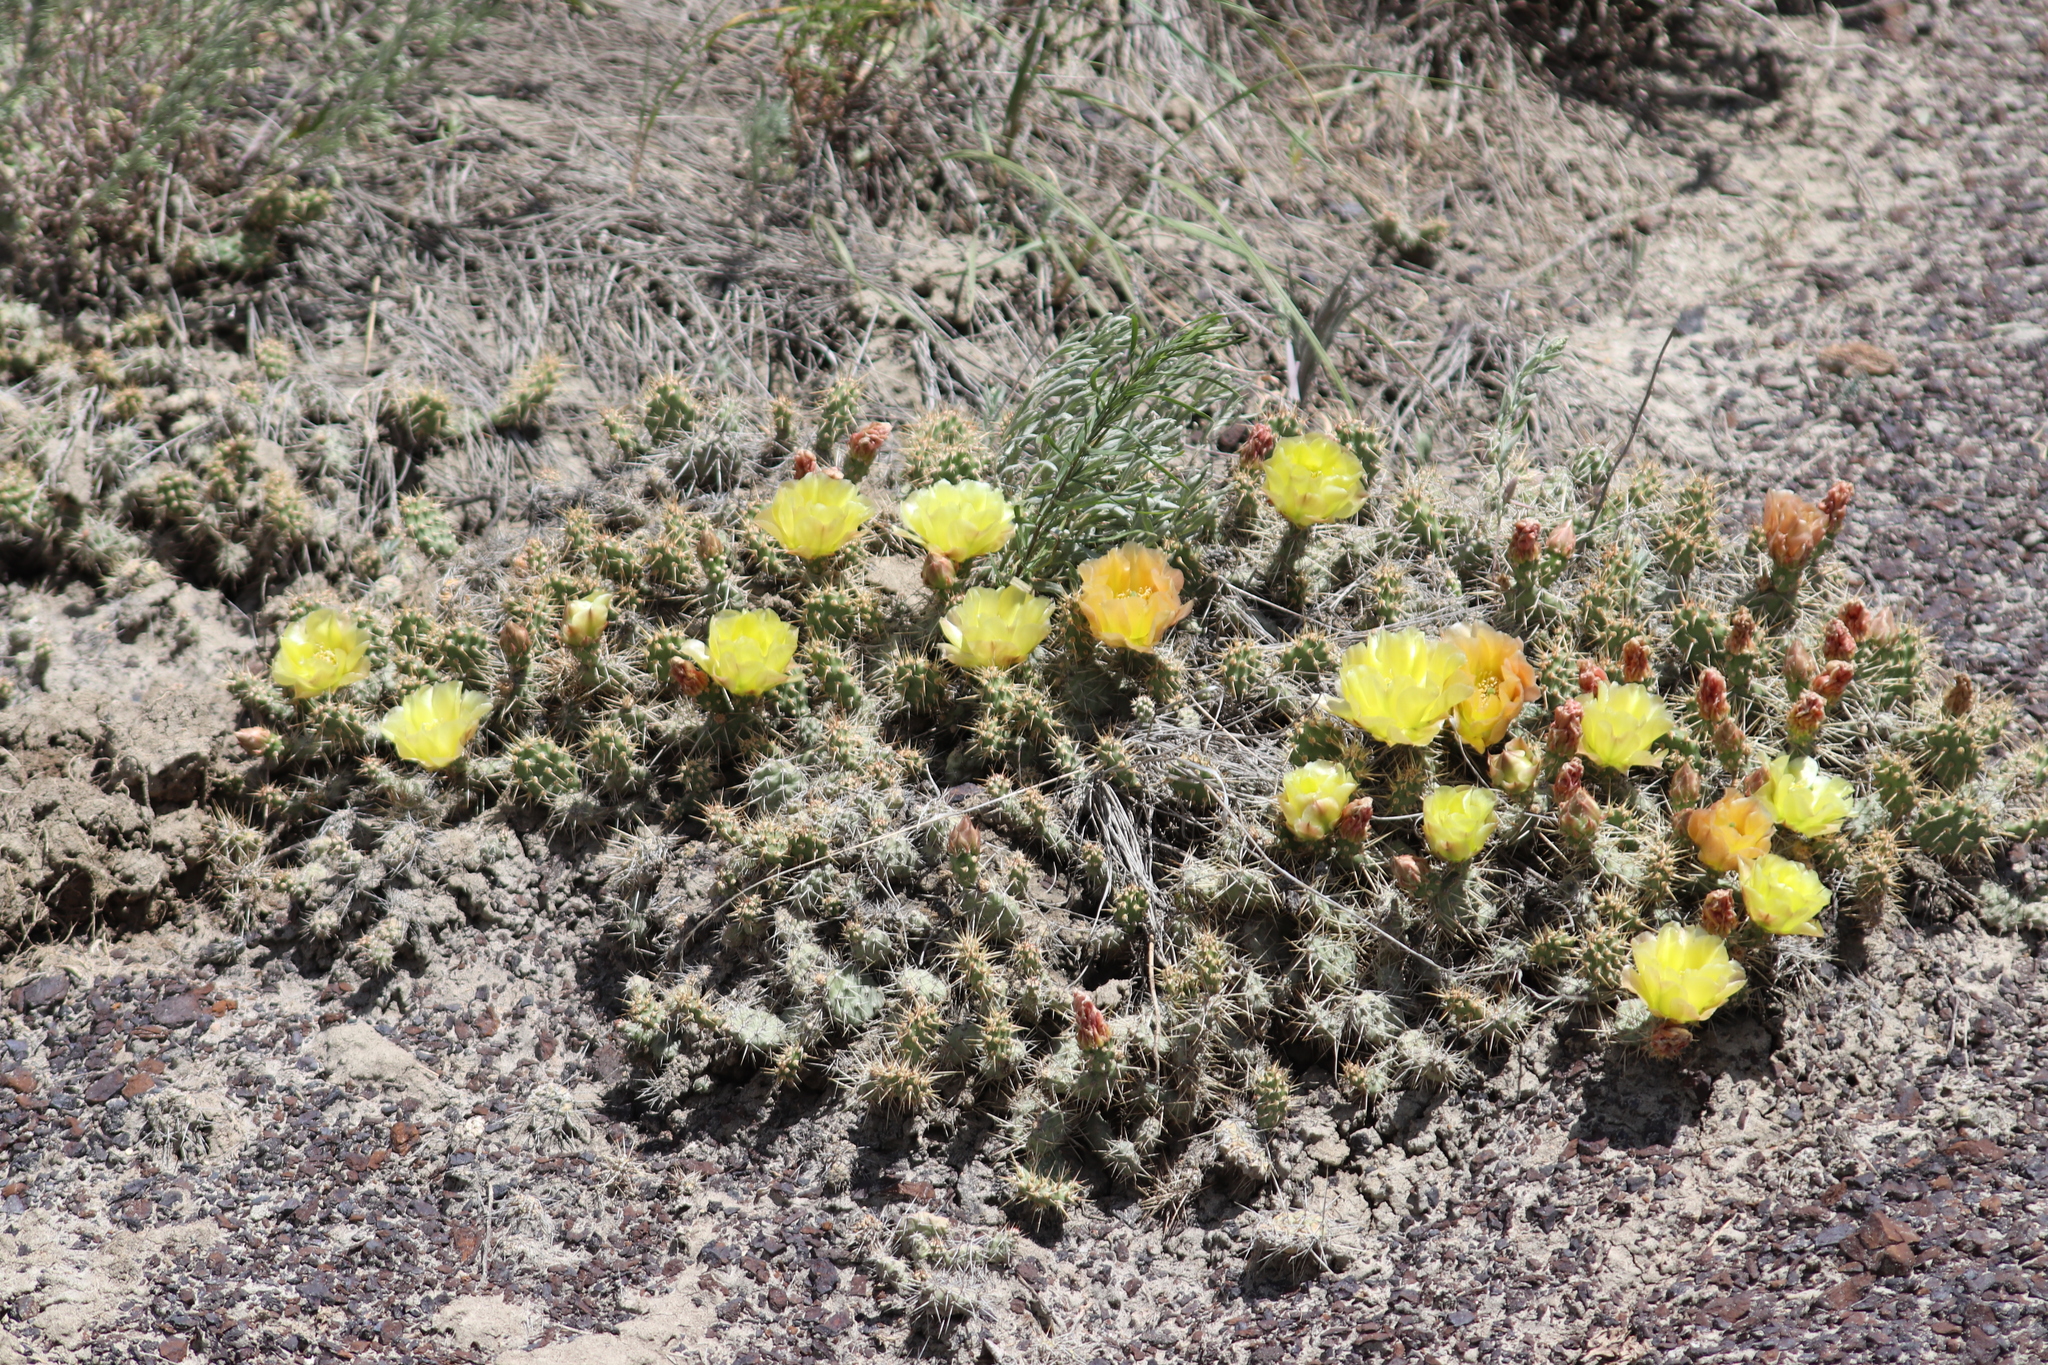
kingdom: Plantae
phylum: Tracheophyta
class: Magnoliopsida
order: Caryophyllales
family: Cactaceae
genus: Opuntia
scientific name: Opuntia fragilis
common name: Brittle cactus
